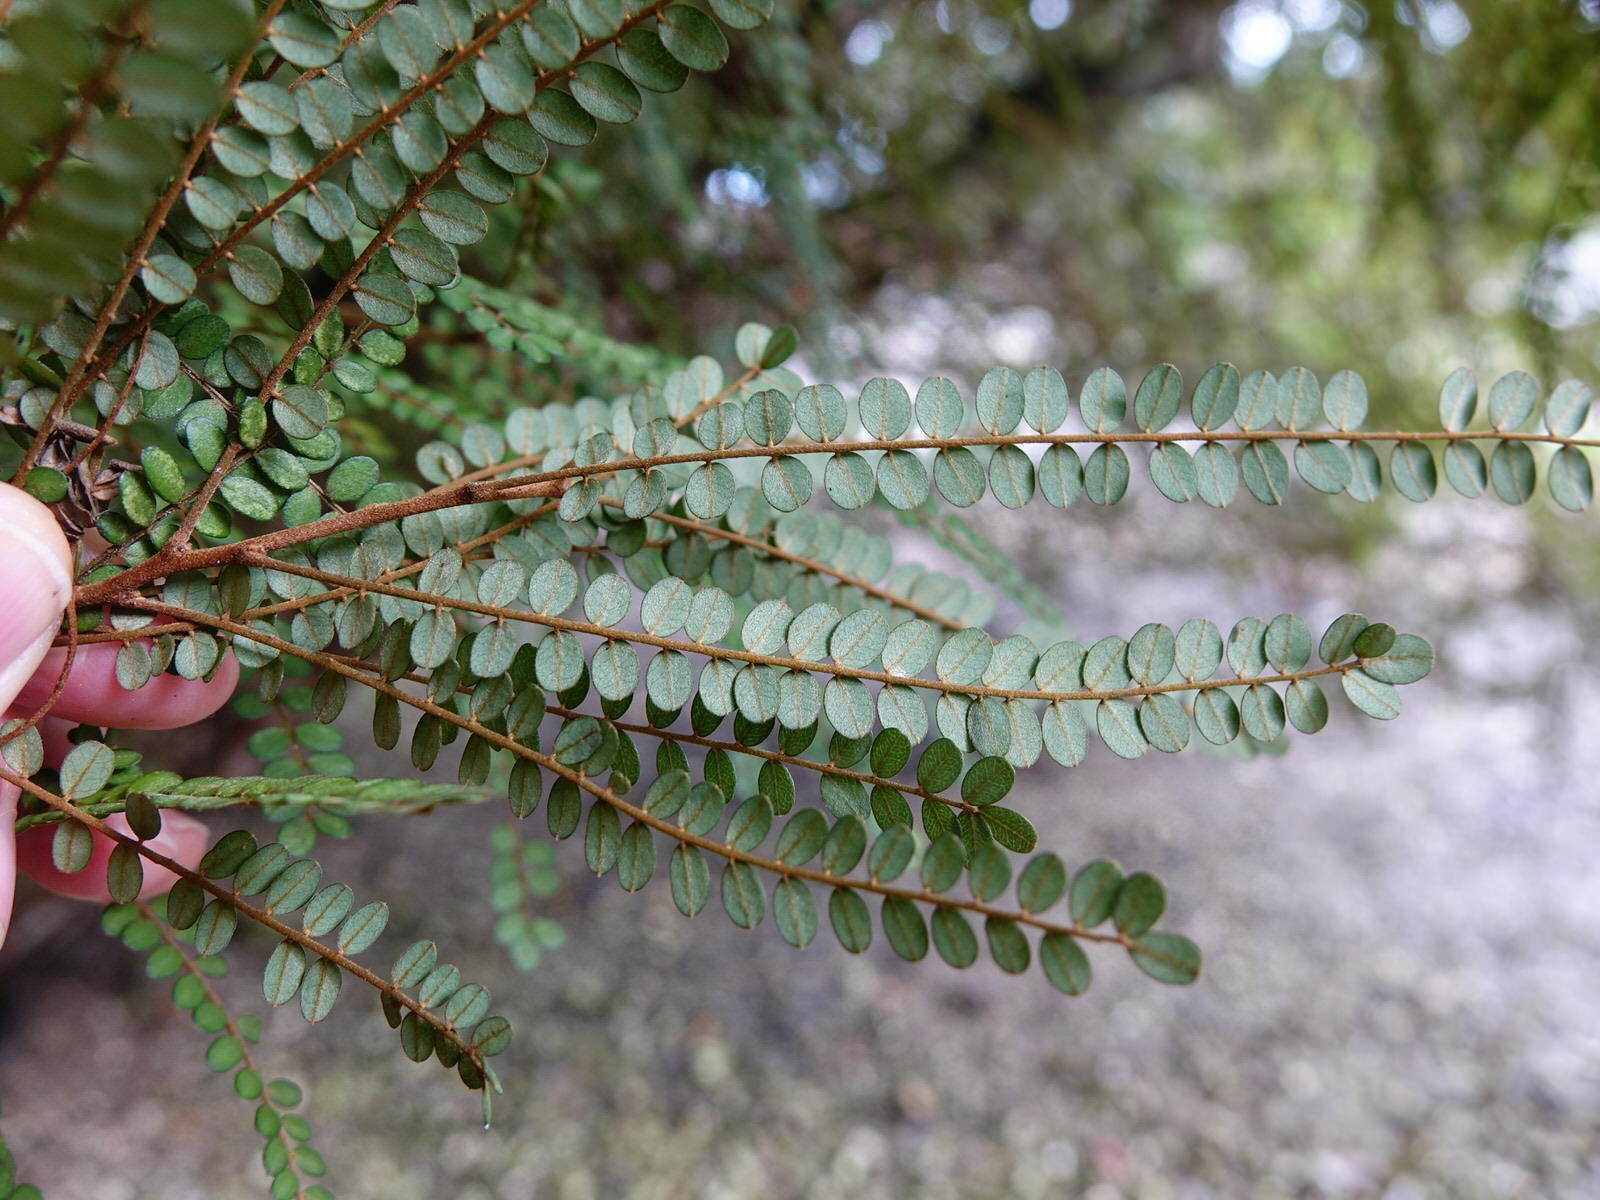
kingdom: Plantae
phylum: Tracheophyta
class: Magnoliopsida
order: Fabales
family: Fabaceae
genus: Sophora
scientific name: Sophora chathamica
